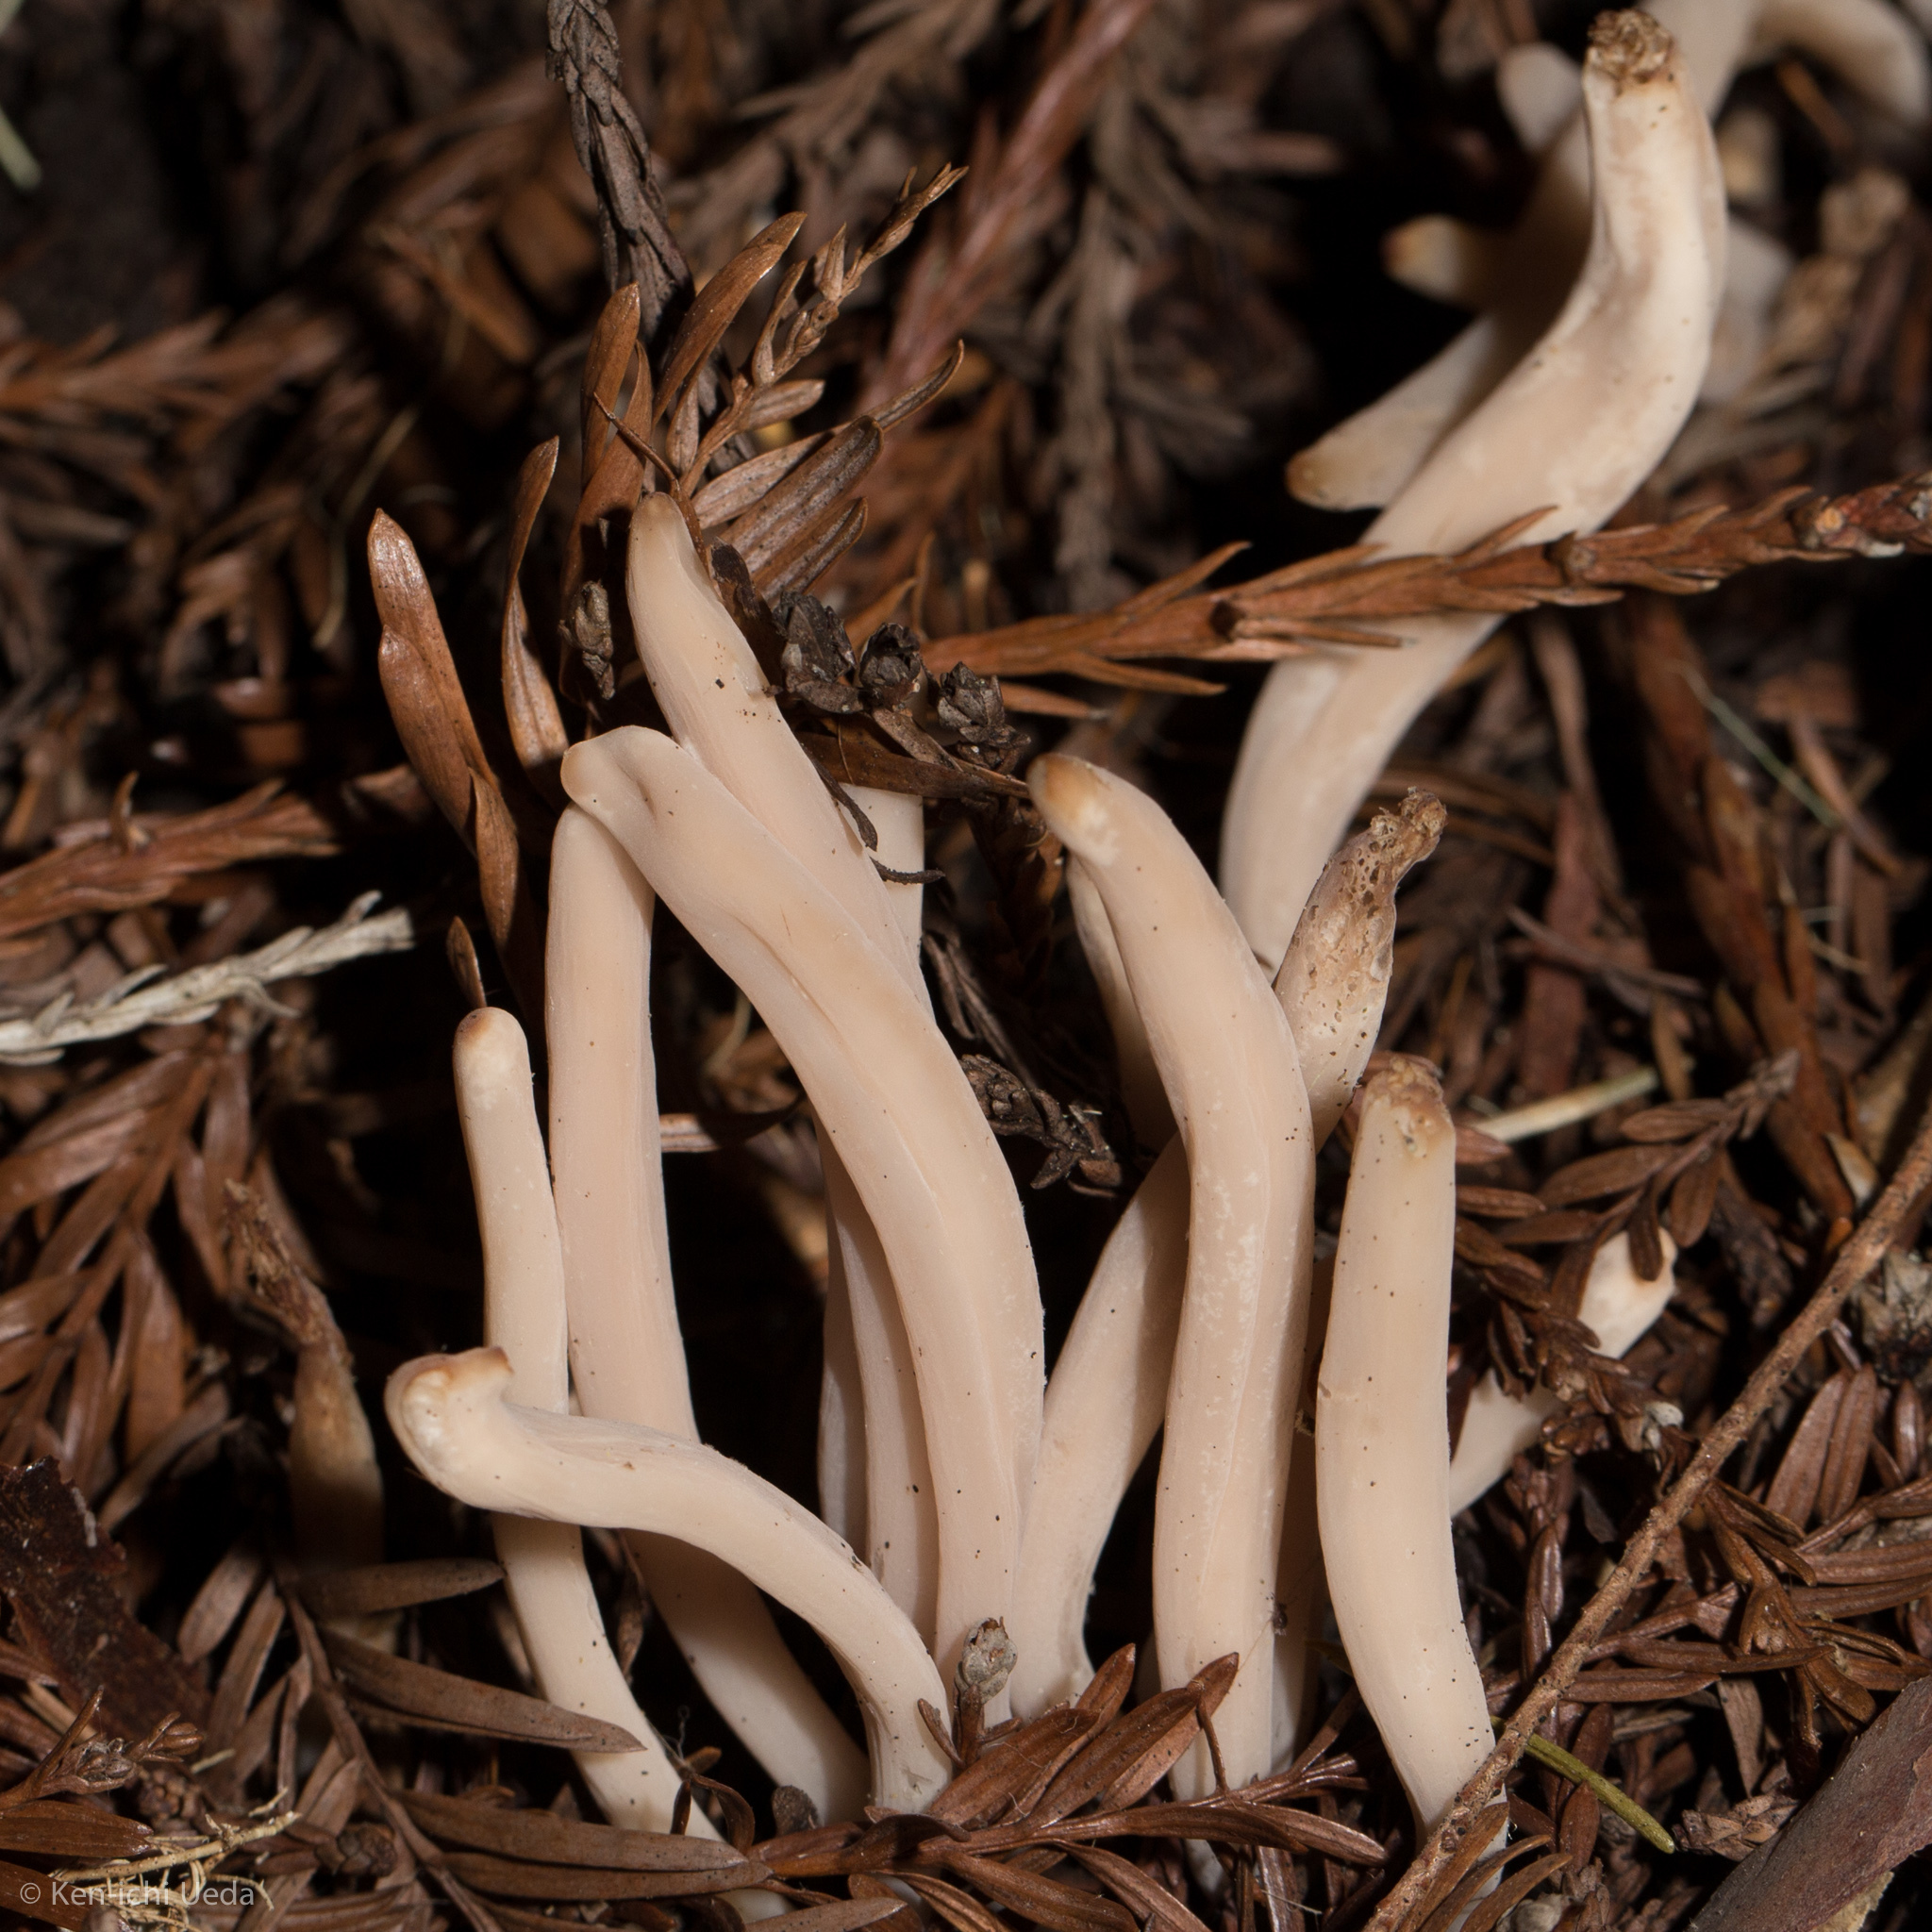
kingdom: Fungi
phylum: Basidiomycota
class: Agaricomycetes
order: Agaricales
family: Clavariaceae
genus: Clavaria
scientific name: Clavaria fumosa
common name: Smoky spindles
